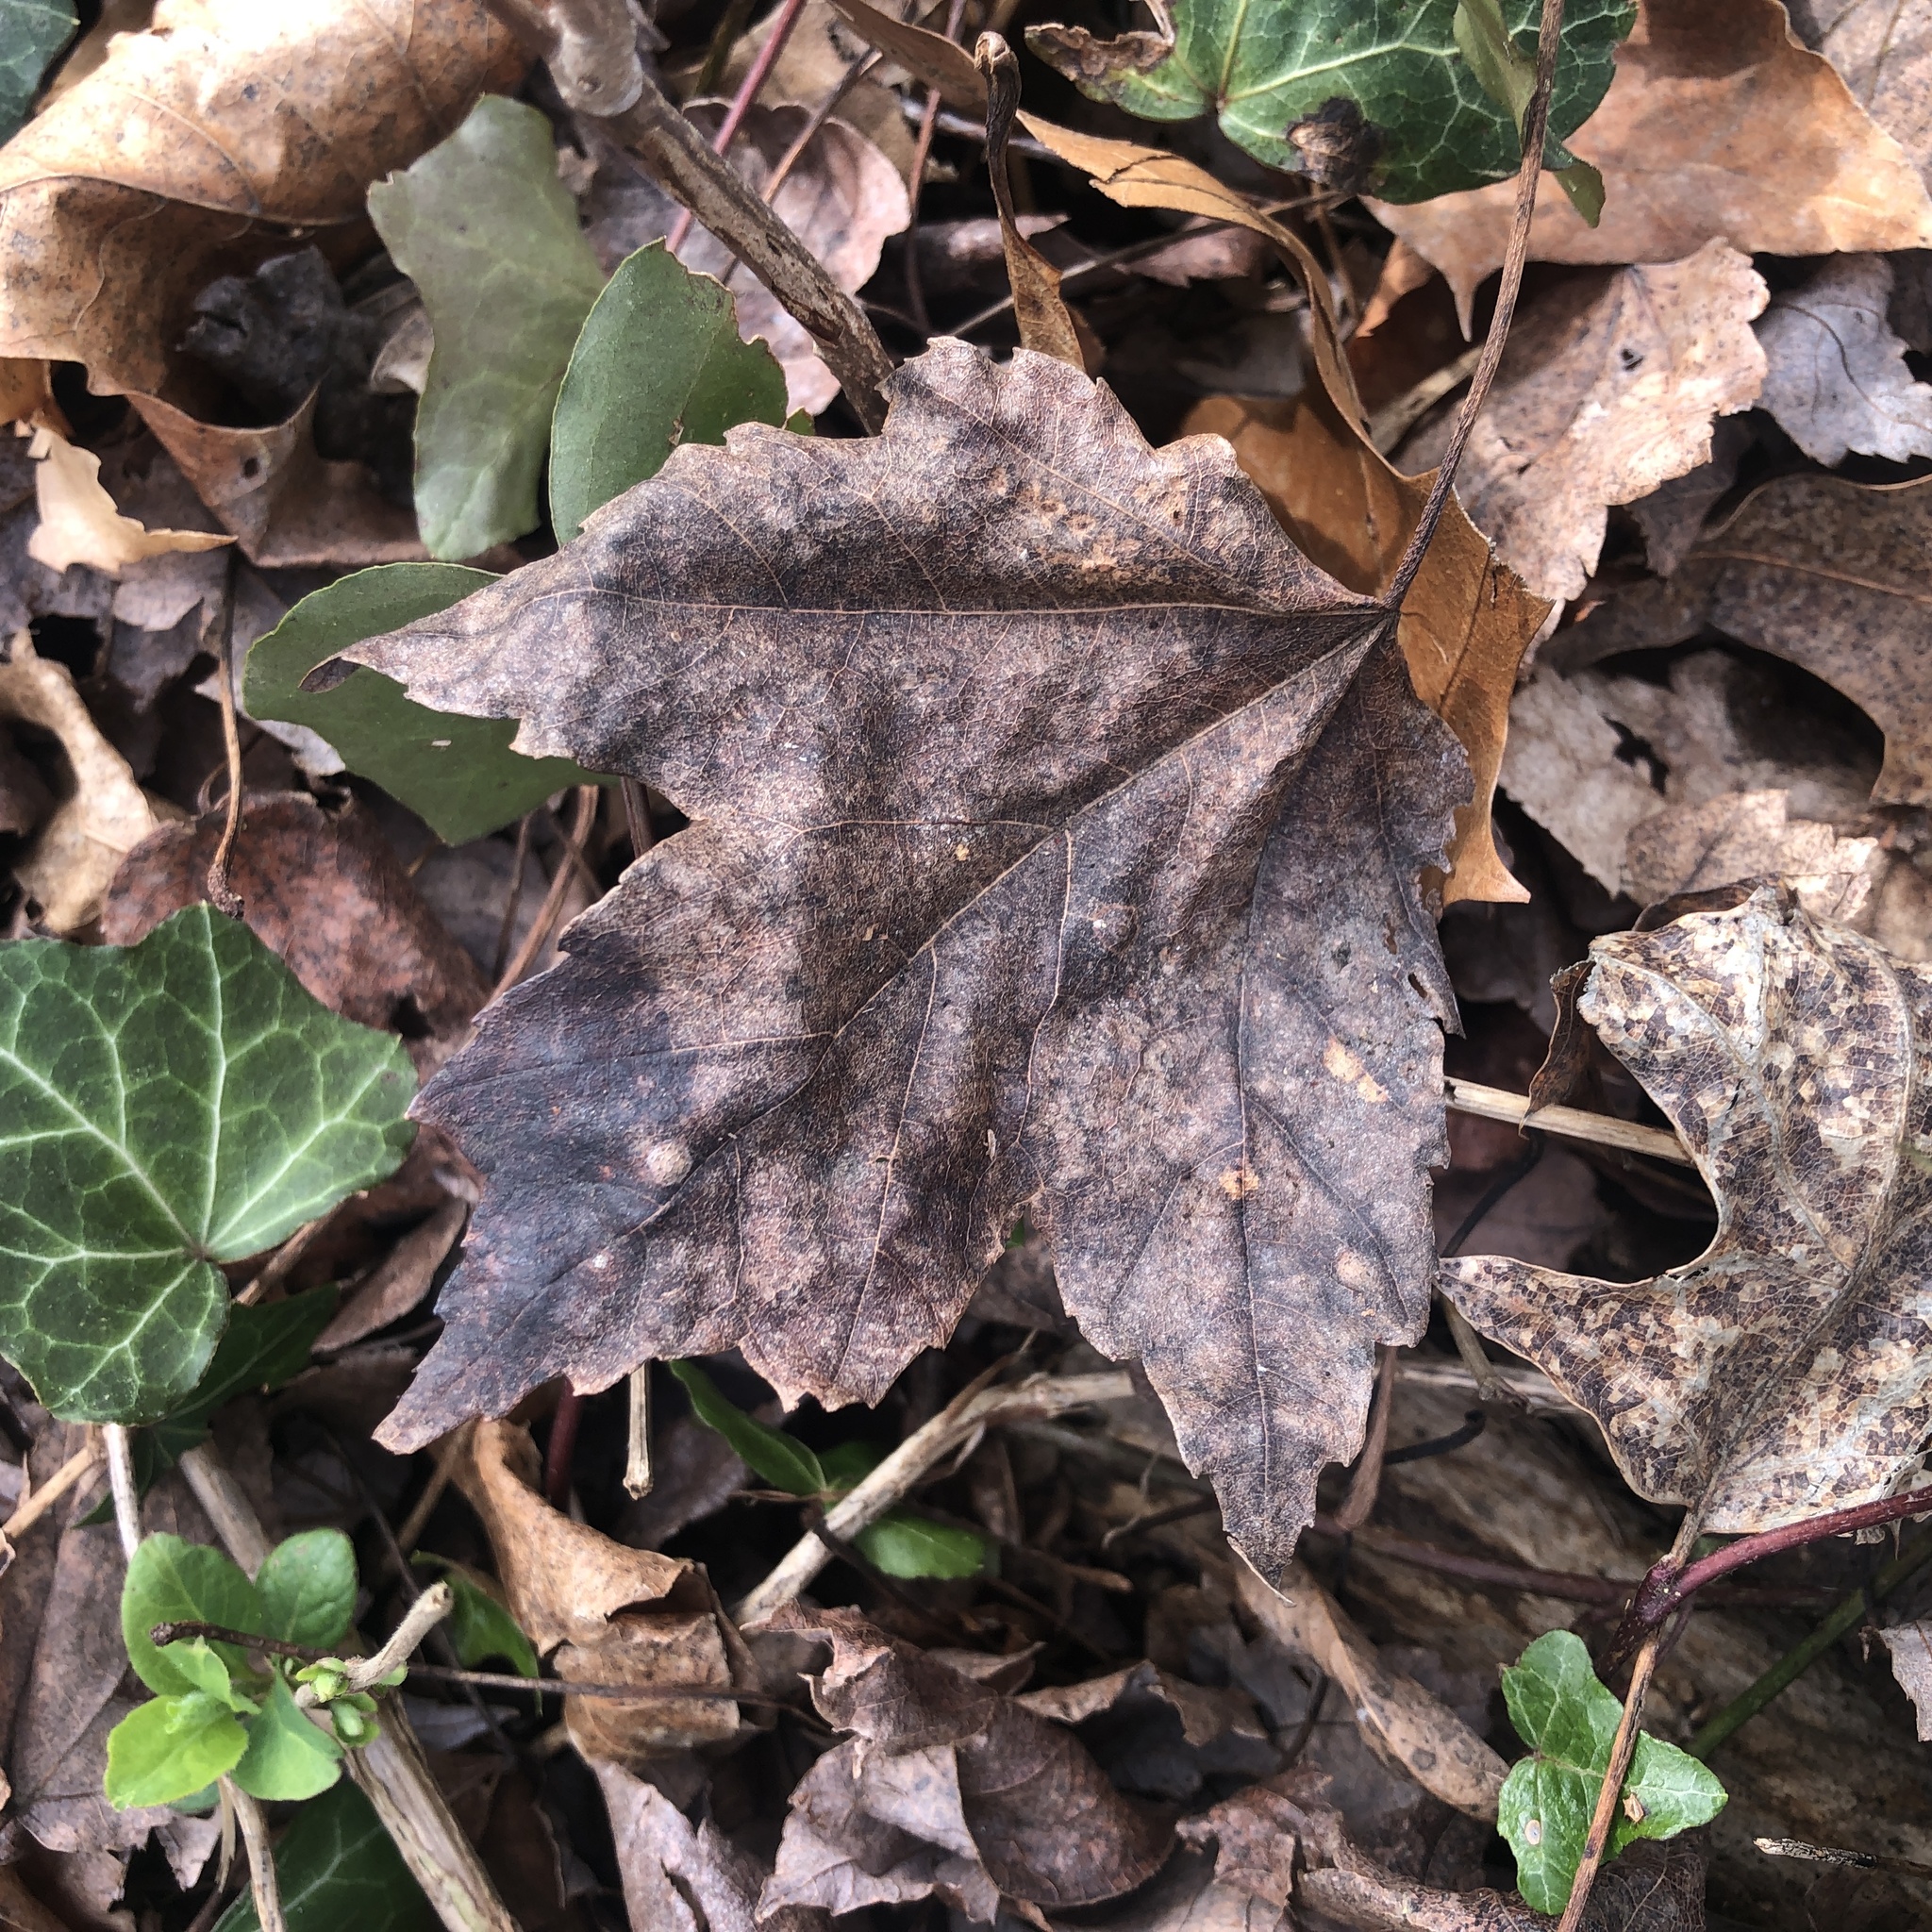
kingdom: Plantae
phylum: Tracheophyta
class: Magnoliopsida
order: Sapindales
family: Sapindaceae
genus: Acer
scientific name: Acer rubrum
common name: Red maple
